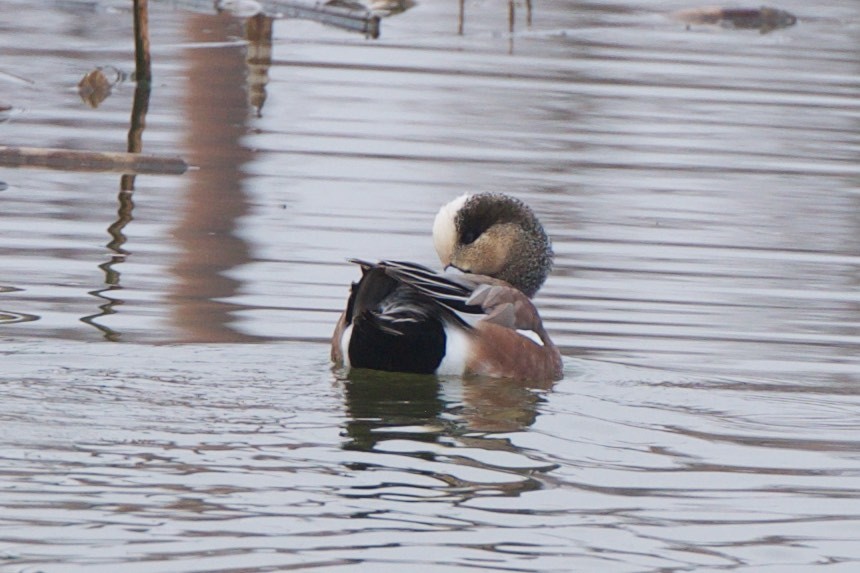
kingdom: Animalia
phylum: Chordata
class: Aves
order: Anseriformes
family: Anatidae
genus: Mareca
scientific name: Mareca americana
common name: American wigeon
